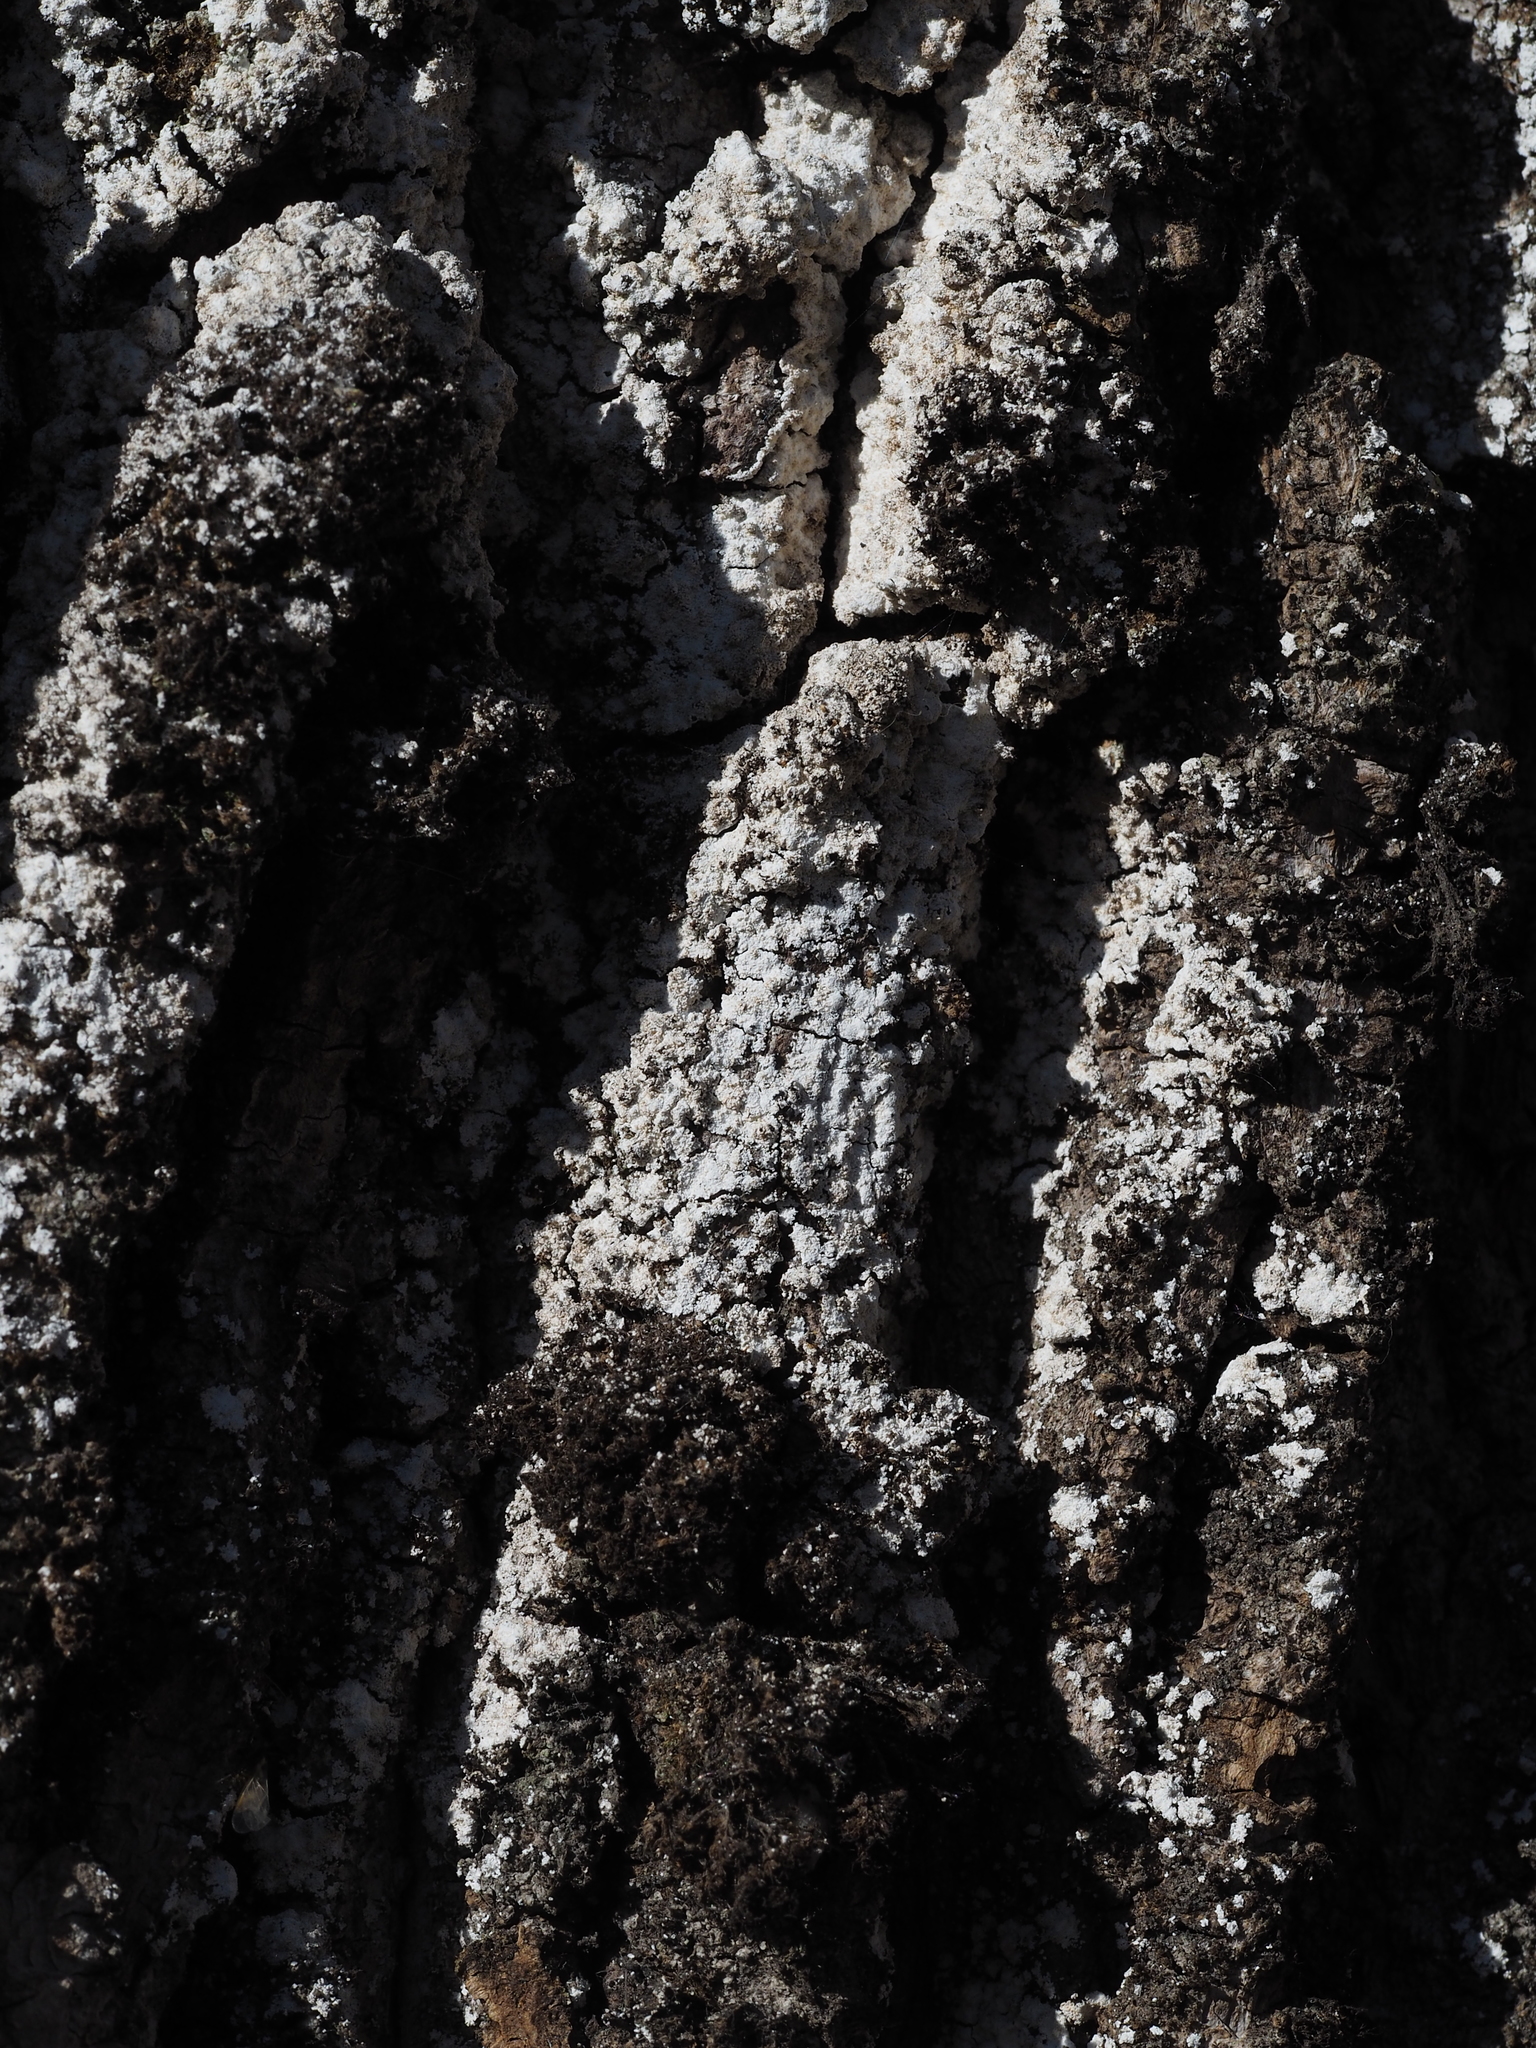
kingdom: Fungi
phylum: Ascomycota
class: Lecanoromycetes
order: Lecanorales
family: Stereocaulaceae
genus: Lepraria
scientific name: Lepraria
